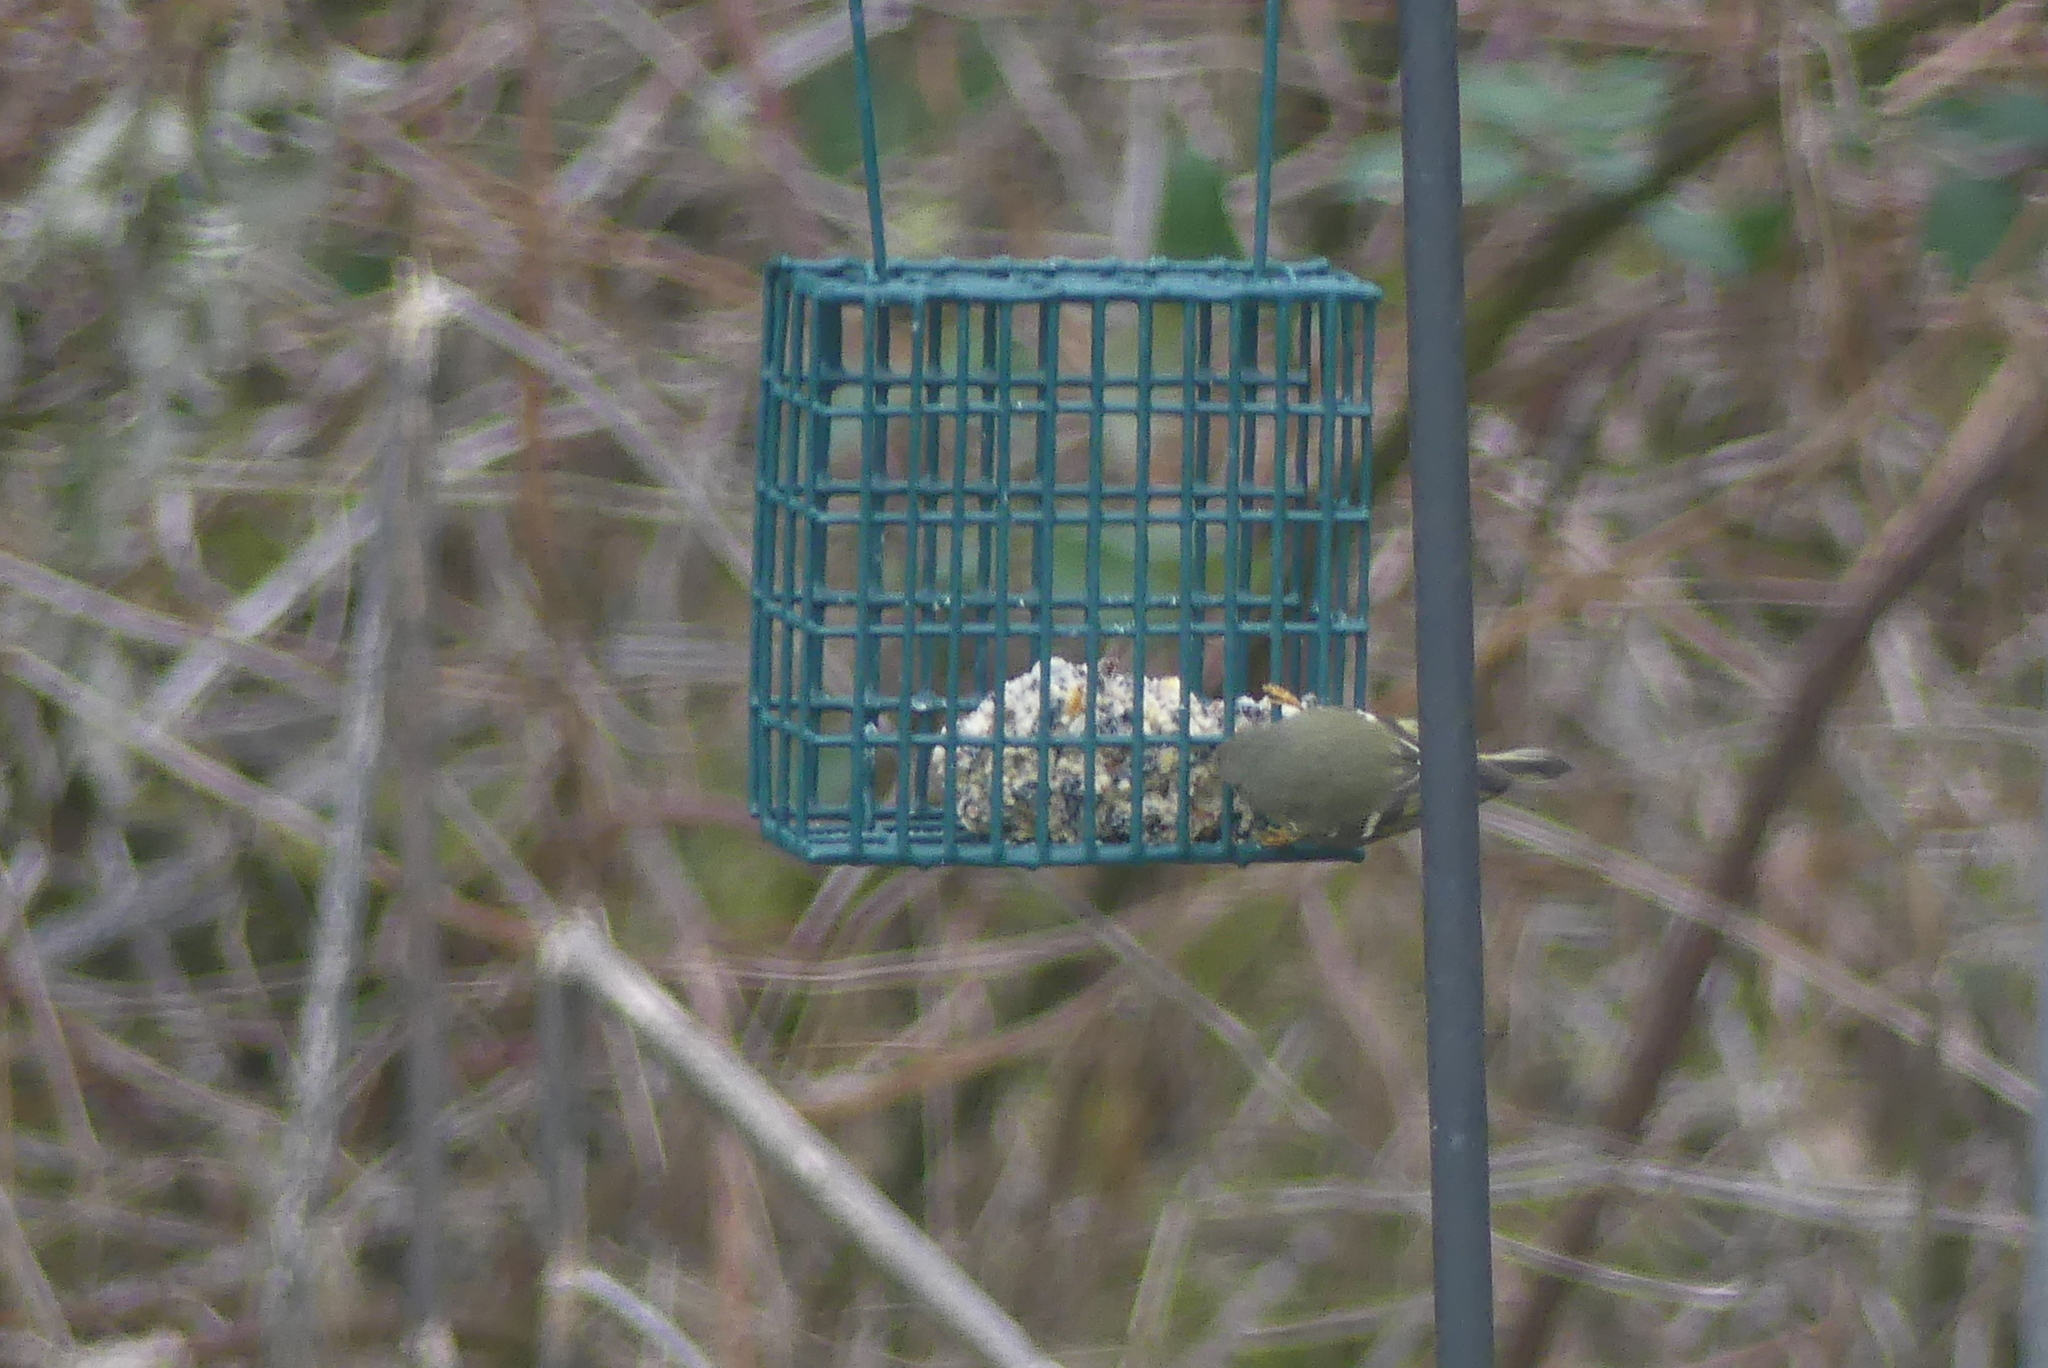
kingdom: Animalia
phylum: Chordata
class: Aves
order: Passeriformes
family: Regulidae
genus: Regulus
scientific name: Regulus calendula
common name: Ruby-crowned kinglet
